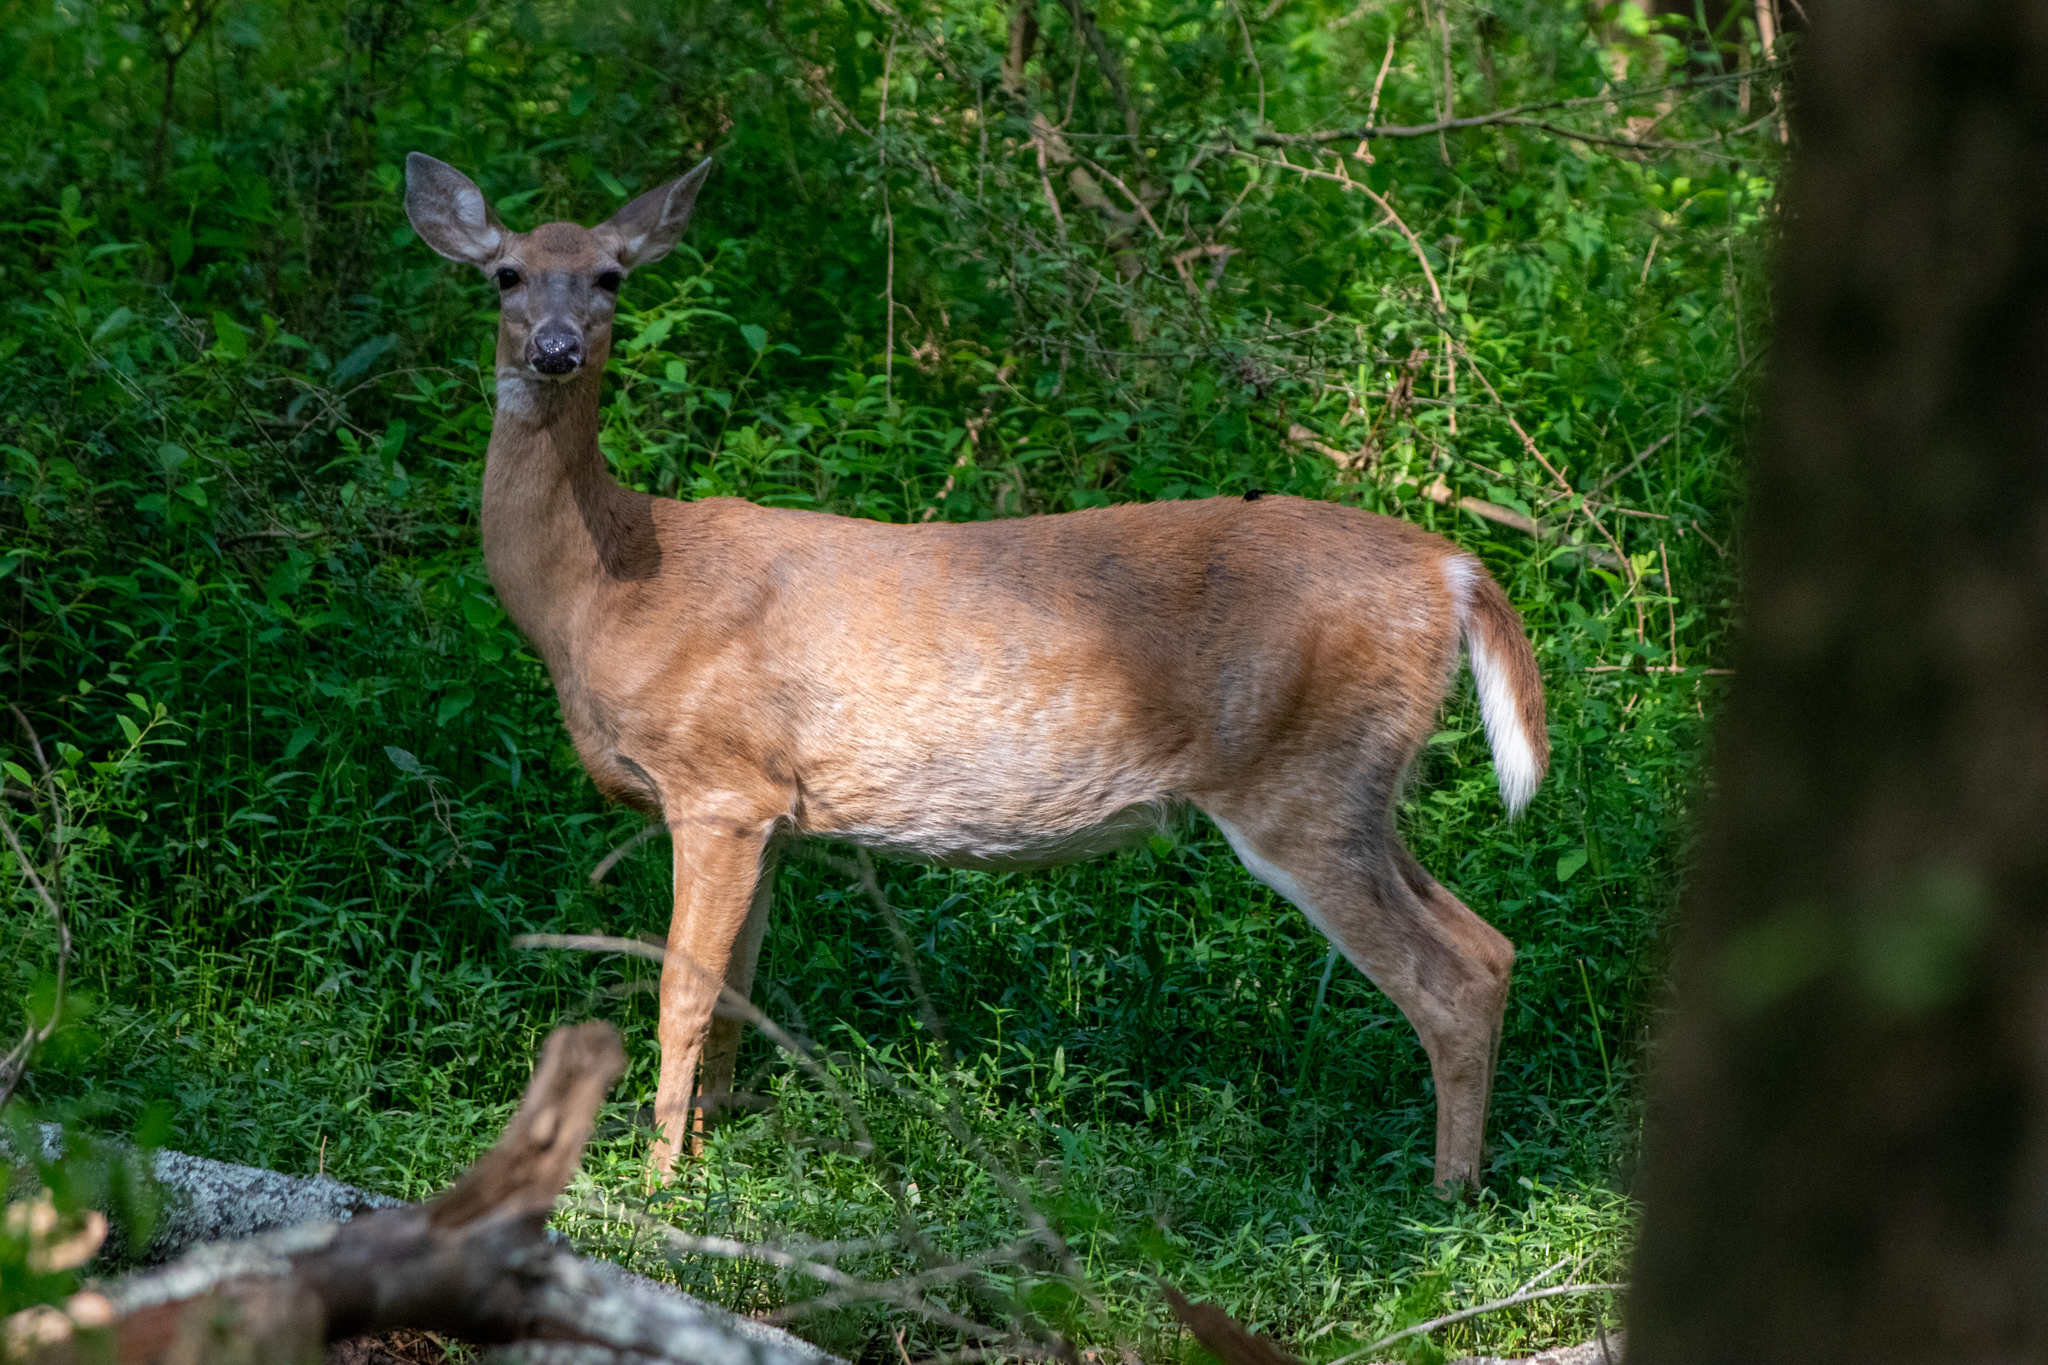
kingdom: Animalia
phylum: Chordata
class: Mammalia
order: Artiodactyla
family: Cervidae
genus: Odocoileus
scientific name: Odocoileus virginianus
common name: White-tailed deer
